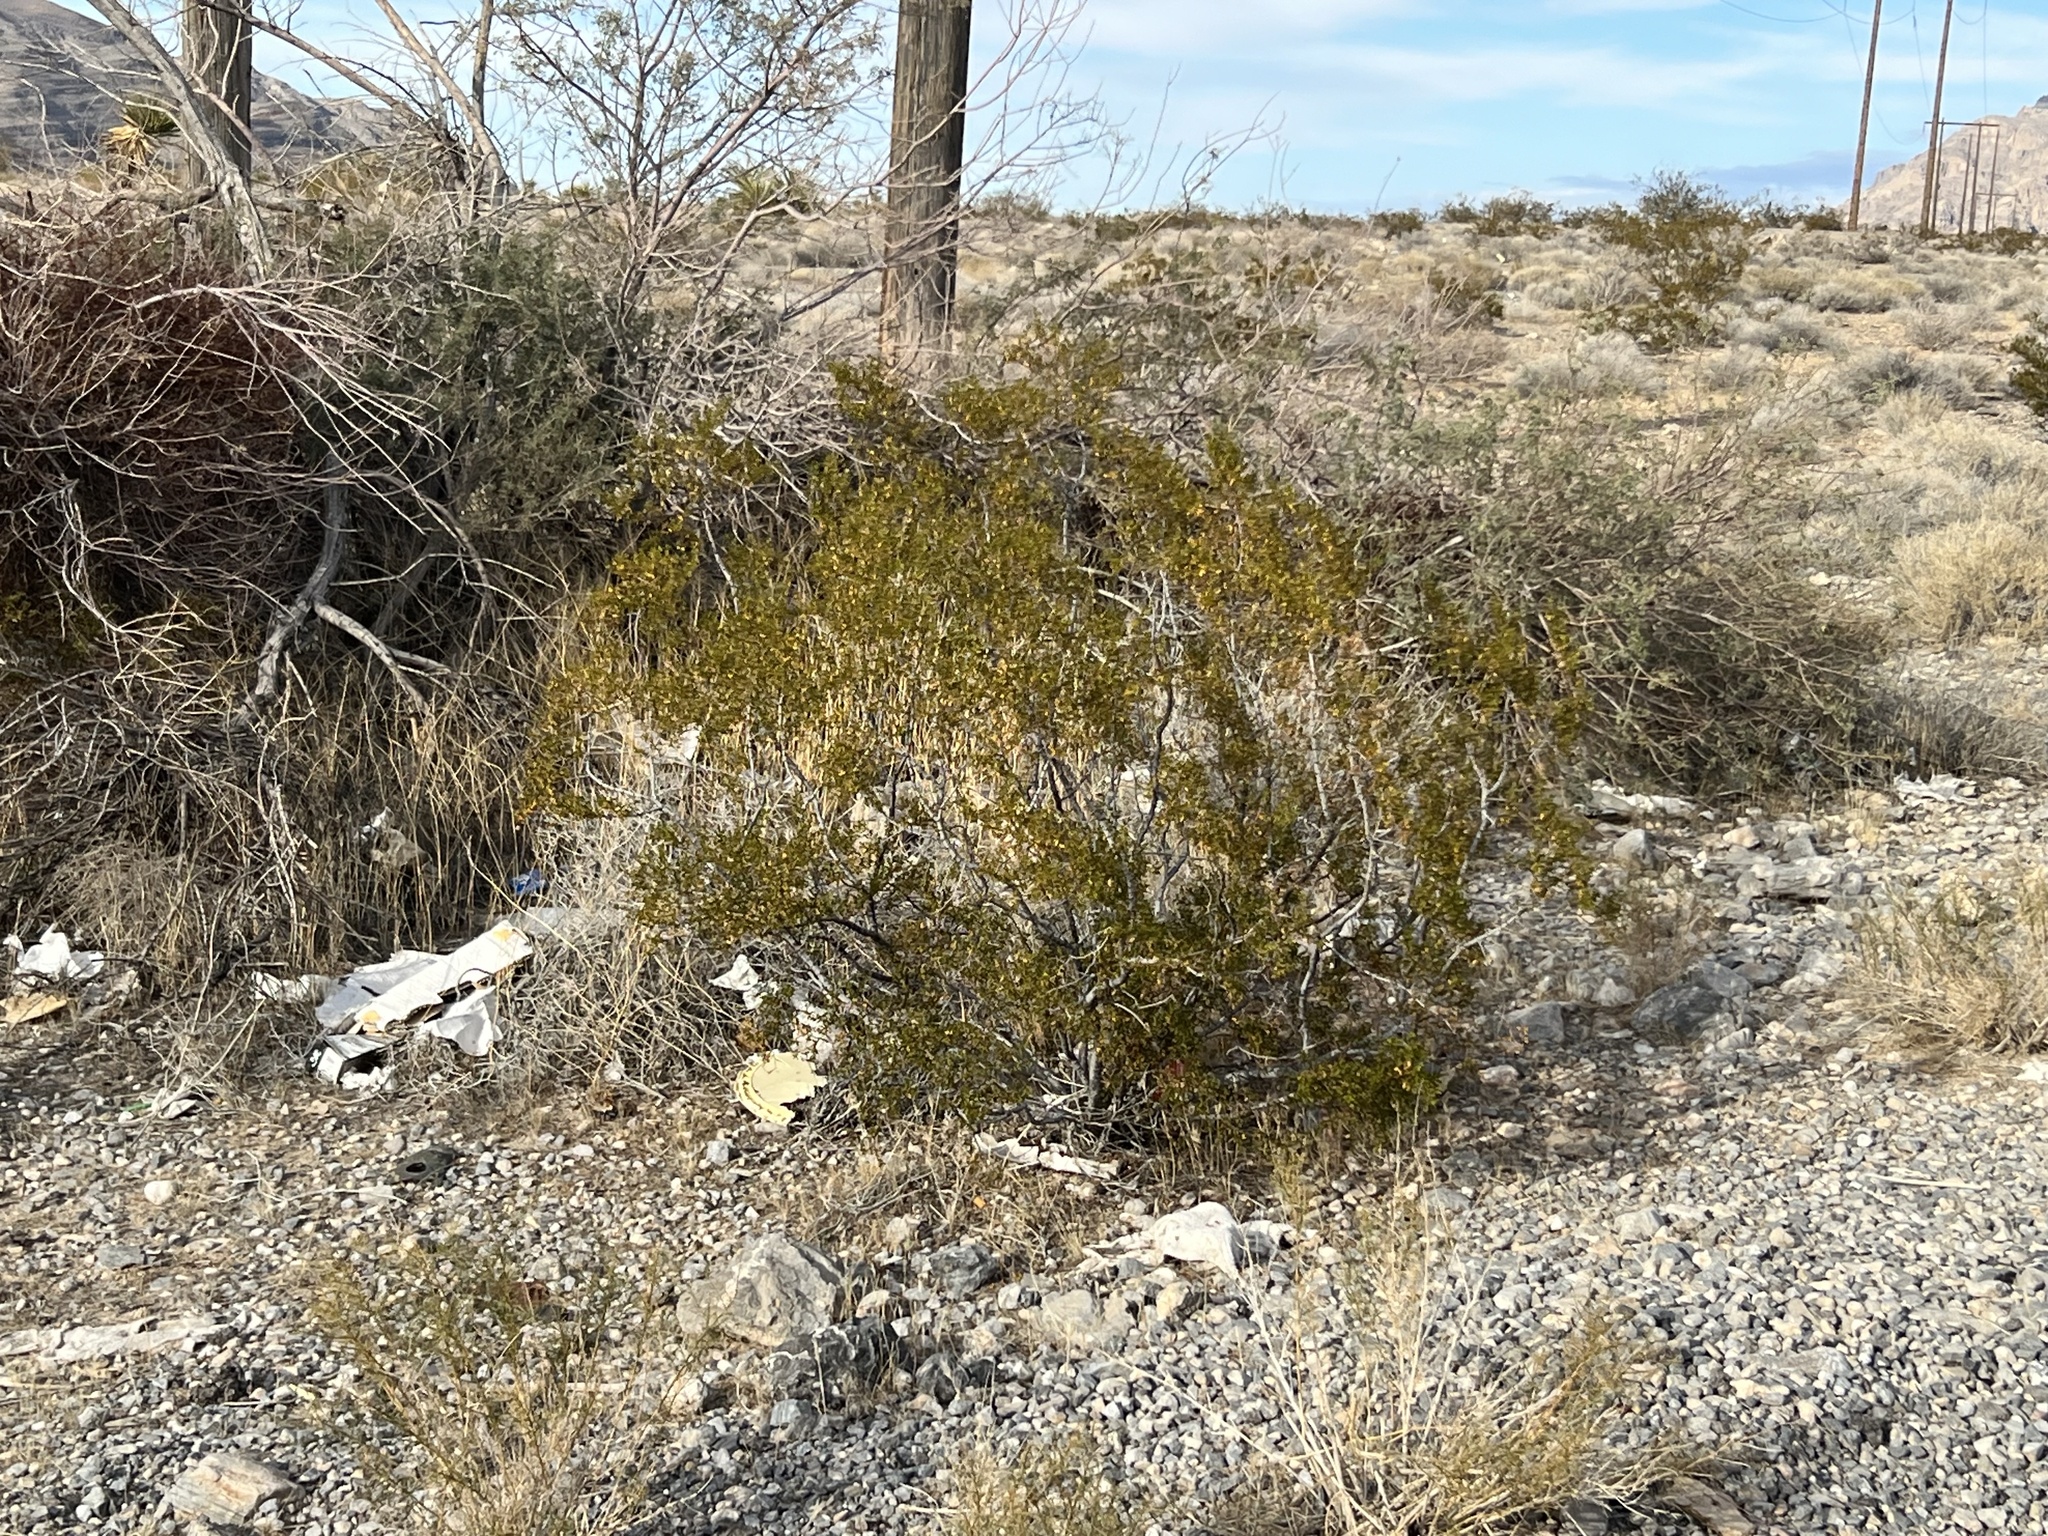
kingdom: Plantae
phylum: Tracheophyta
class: Magnoliopsida
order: Zygophyllales
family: Zygophyllaceae
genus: Larrea
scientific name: Larrea tridentata
